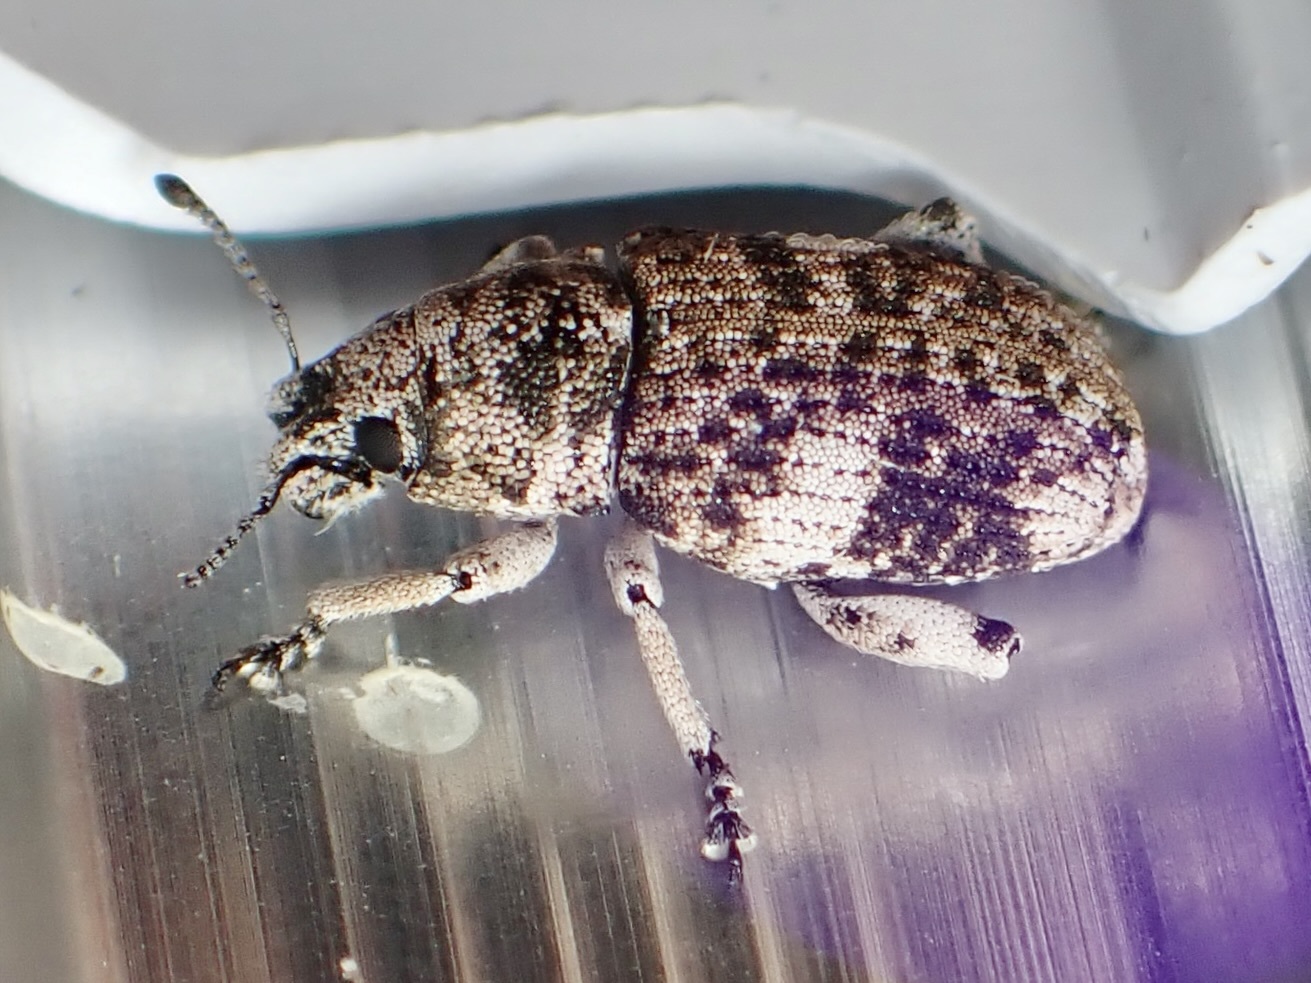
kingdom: Animalia
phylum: Arthropoda
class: Insecta
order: Coleoptera
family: Curculionidae
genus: Colecerus
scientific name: Colecerus dispar
